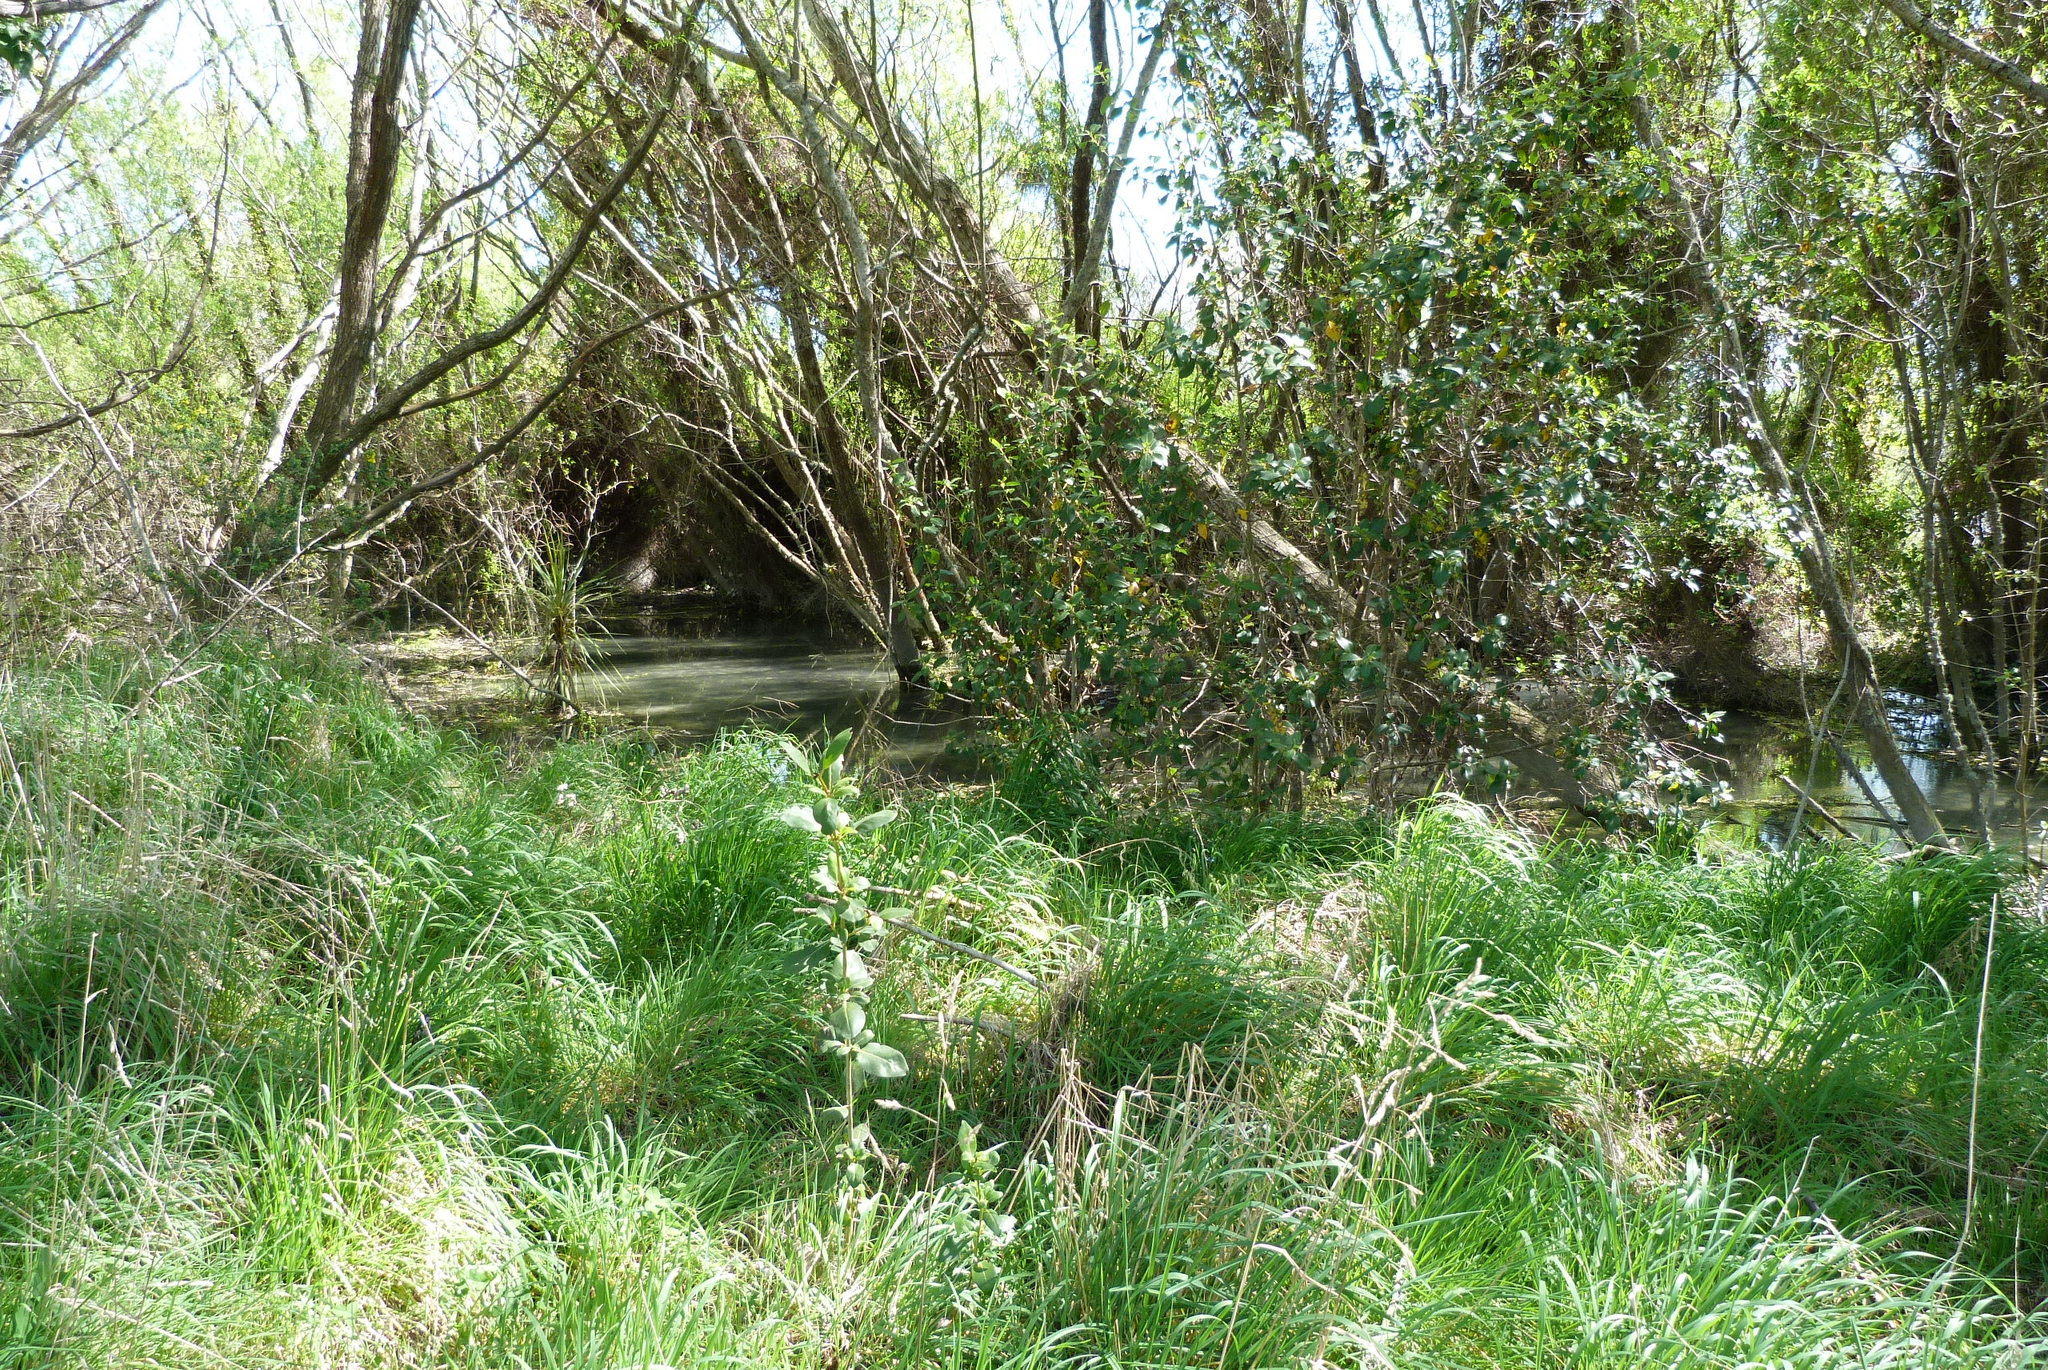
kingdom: Plantae
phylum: Tracheophyta
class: Magnoliopsida
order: Gentianales
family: Rubiaceae
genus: Coprosma
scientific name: Coprosma robusta
